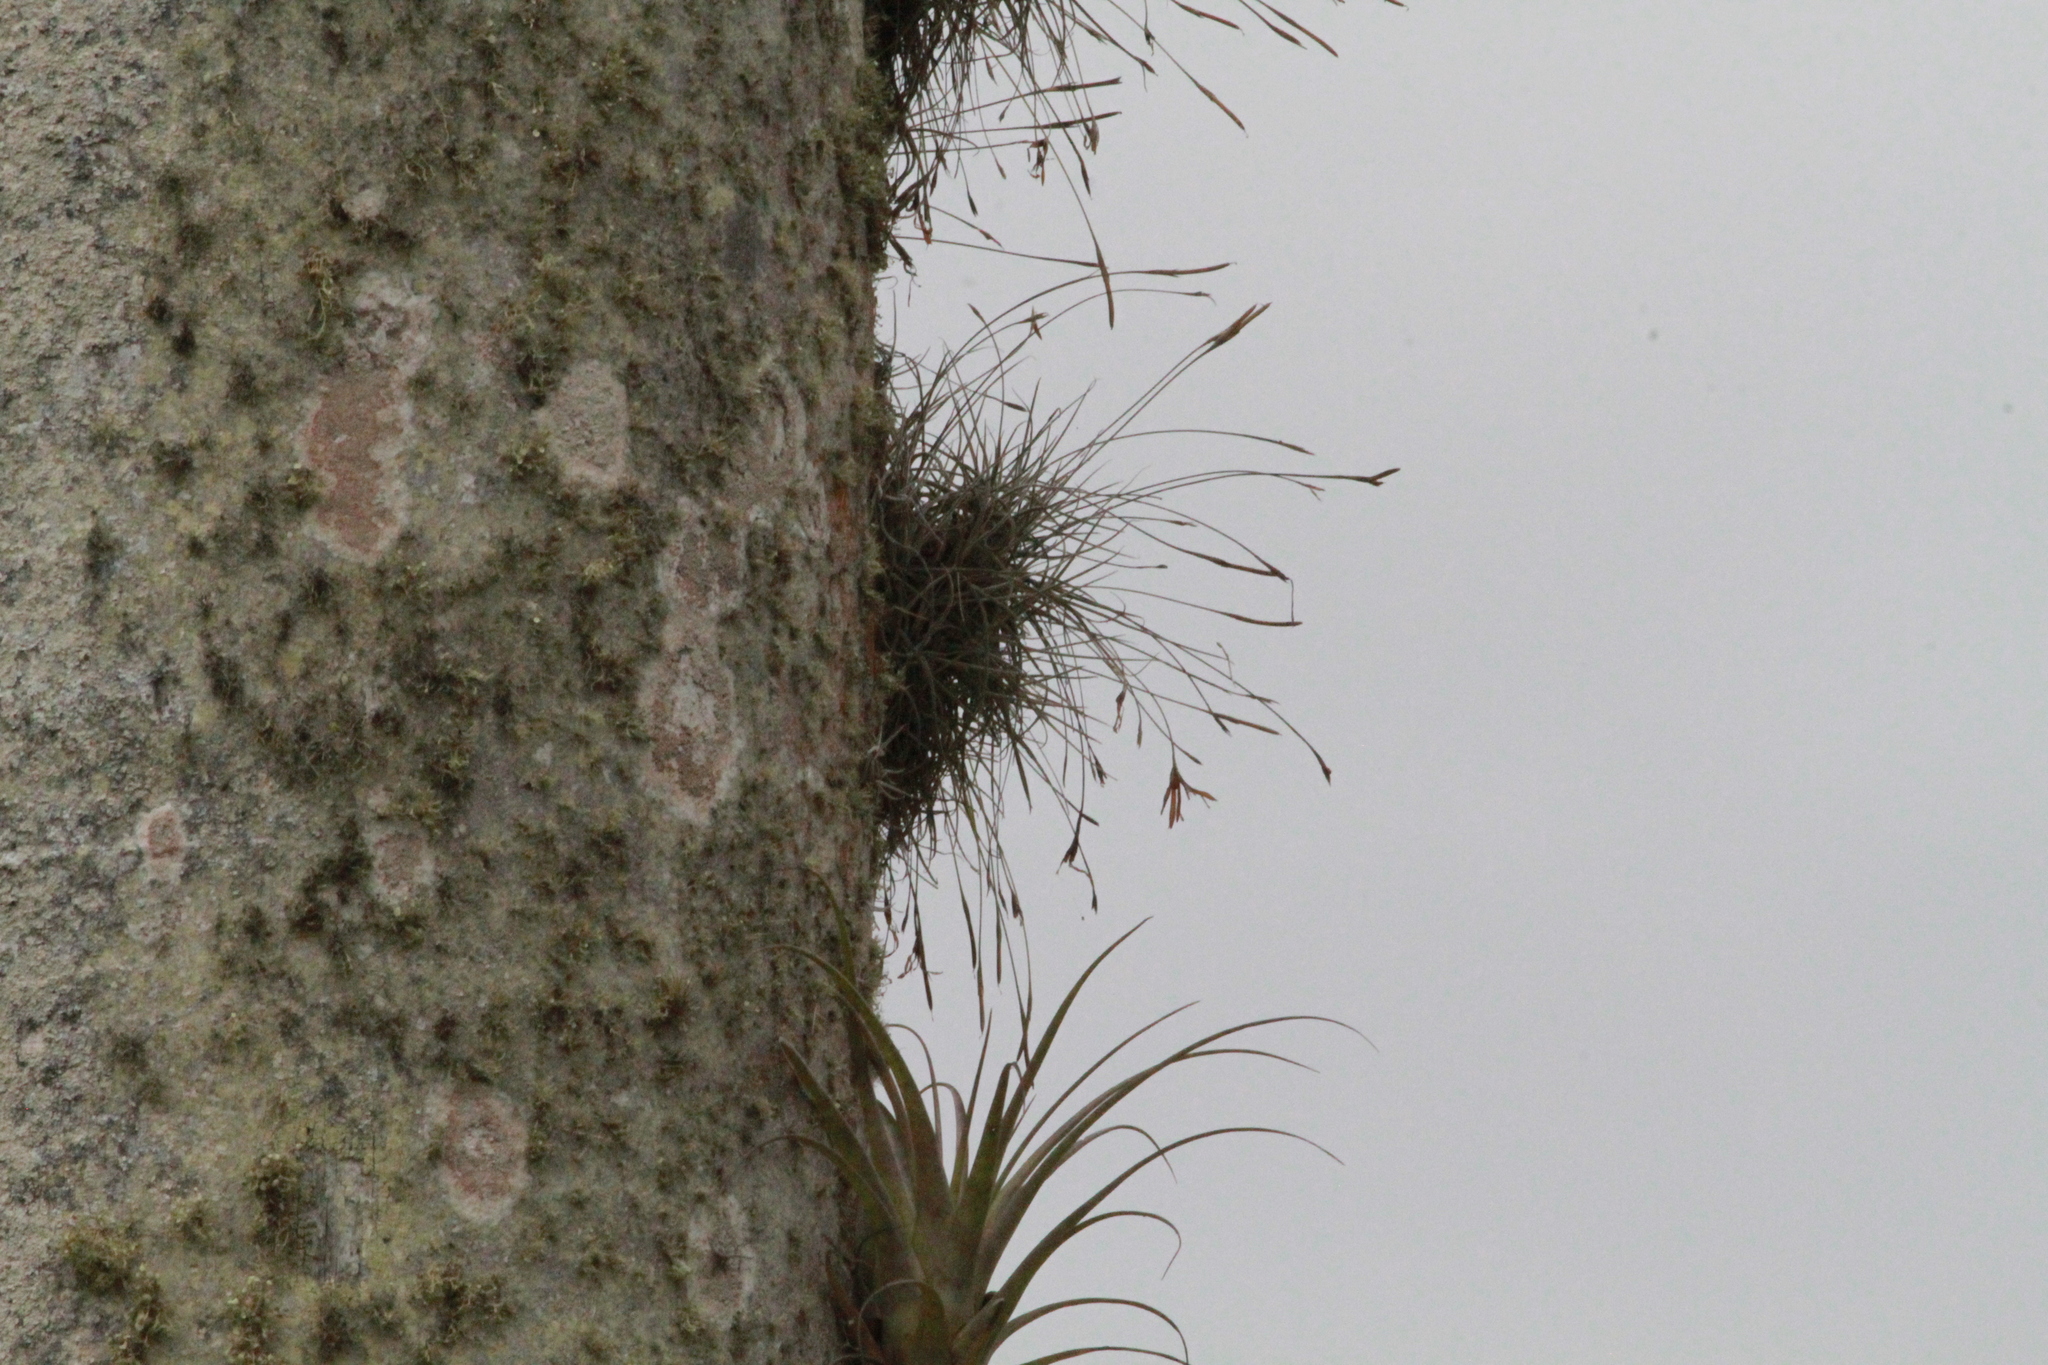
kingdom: Plantae
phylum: Tracheophyta
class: Liliopsida
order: Poales
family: Bromeliaceae
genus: Tillandsia
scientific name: Tillandsia recurvata
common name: Small ballmoss
